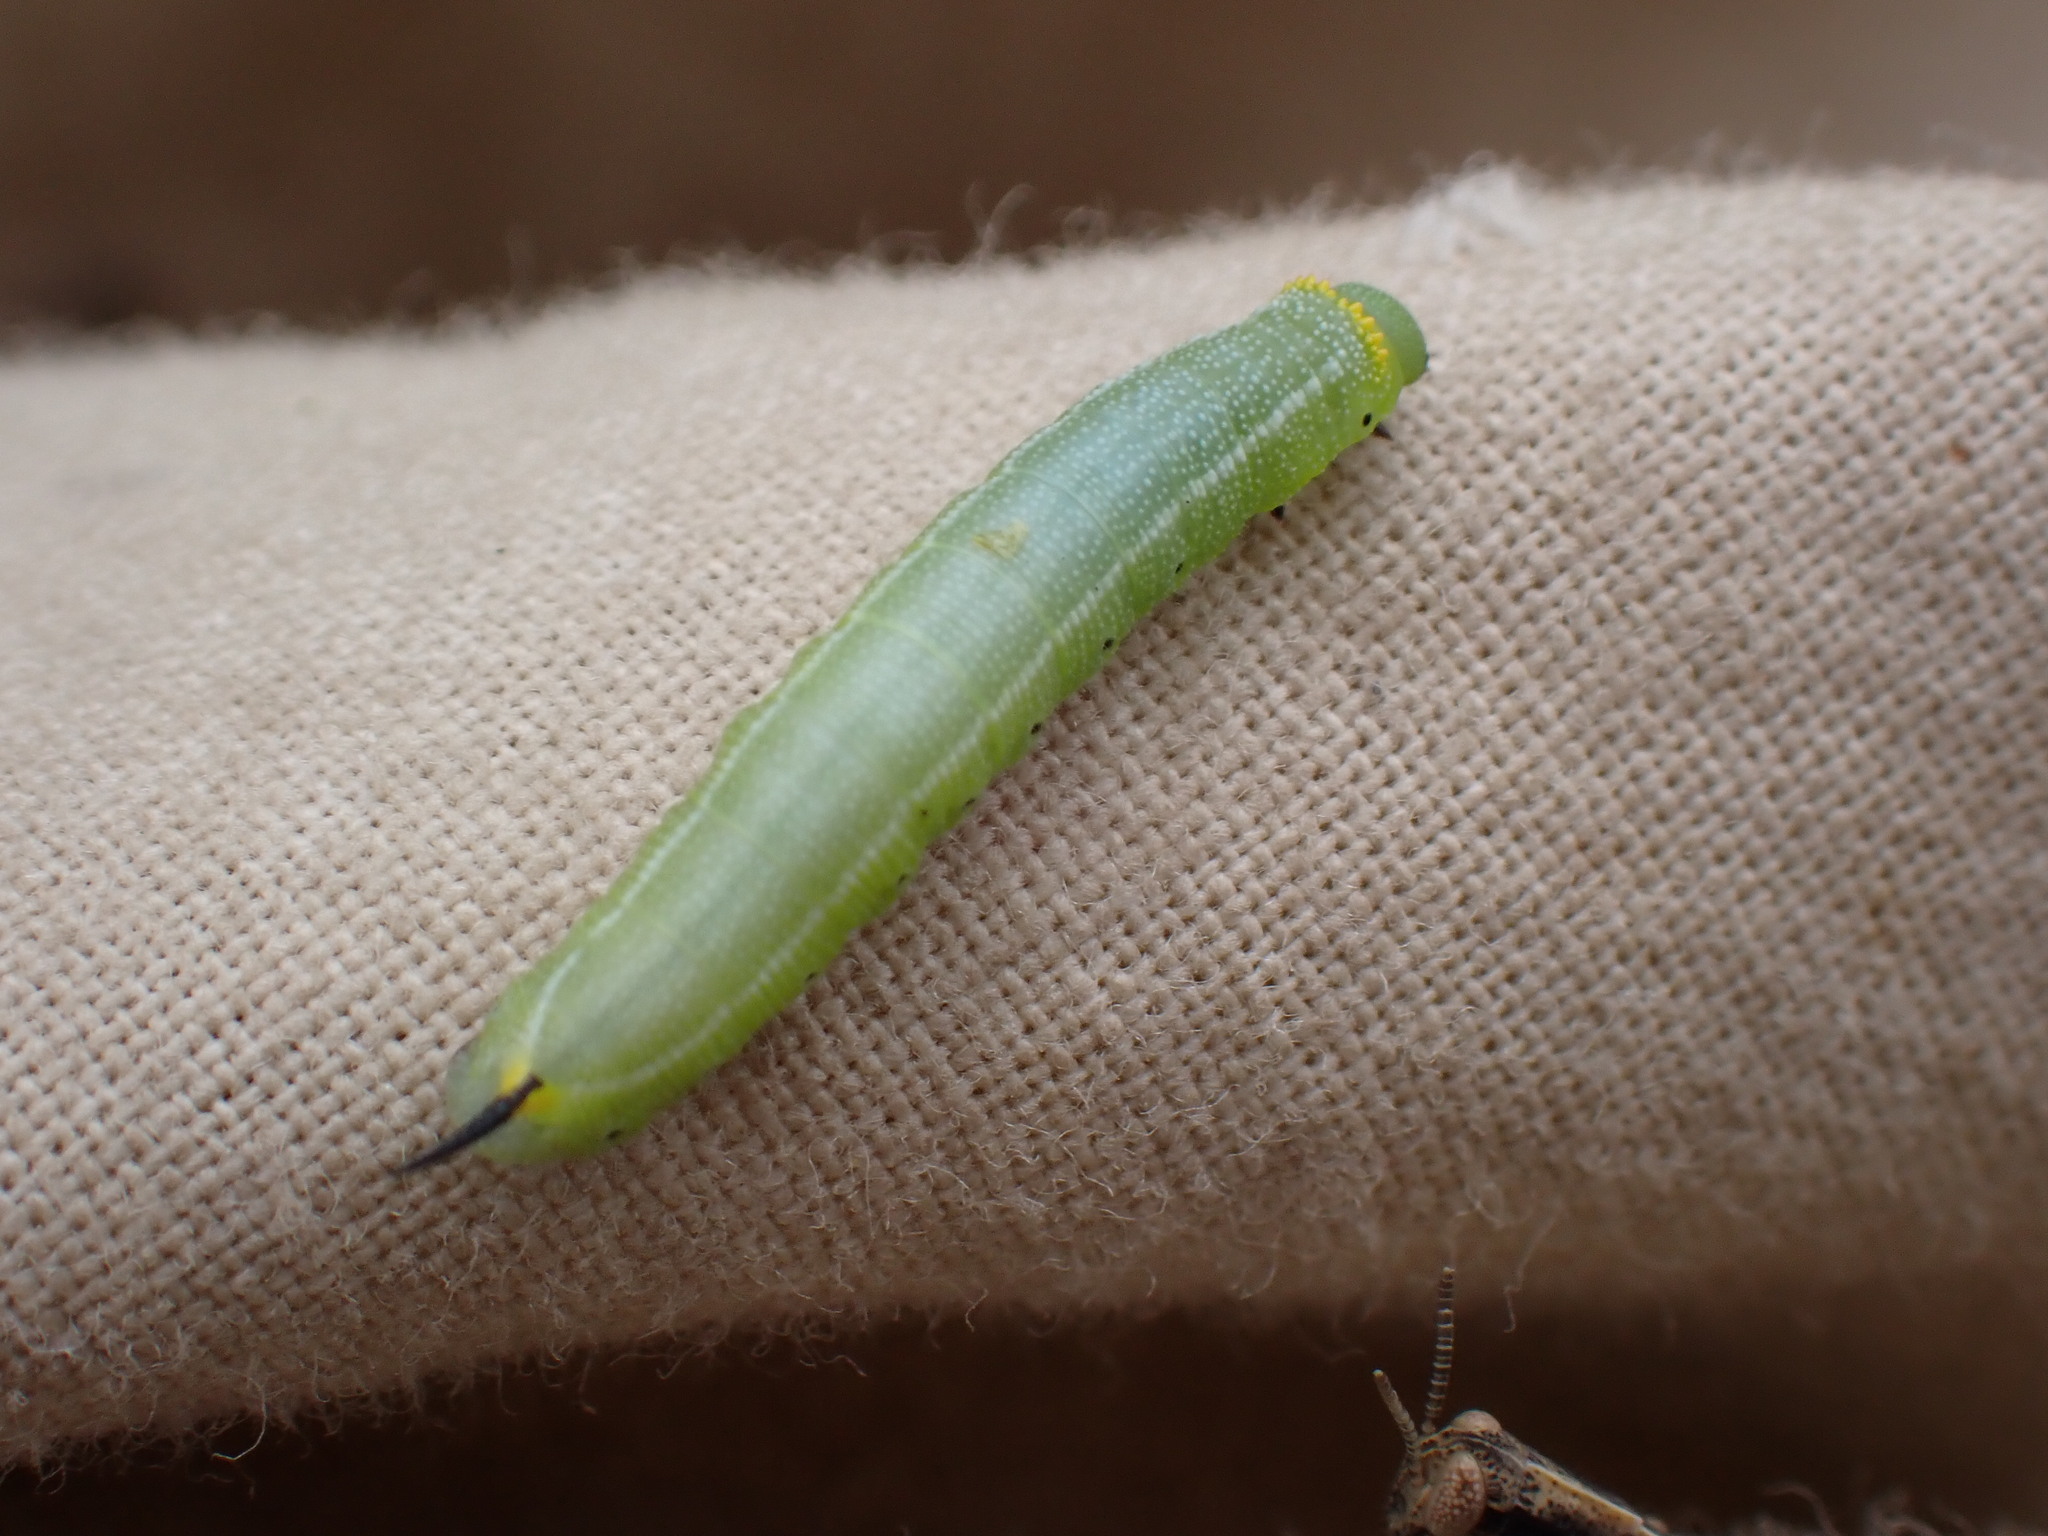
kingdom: Animalia
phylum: Arthropoda
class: Insecta
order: Lepidoptera
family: Sphingidae
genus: Hemaris
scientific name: Hemaris diffinis
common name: Bumblebee moth
